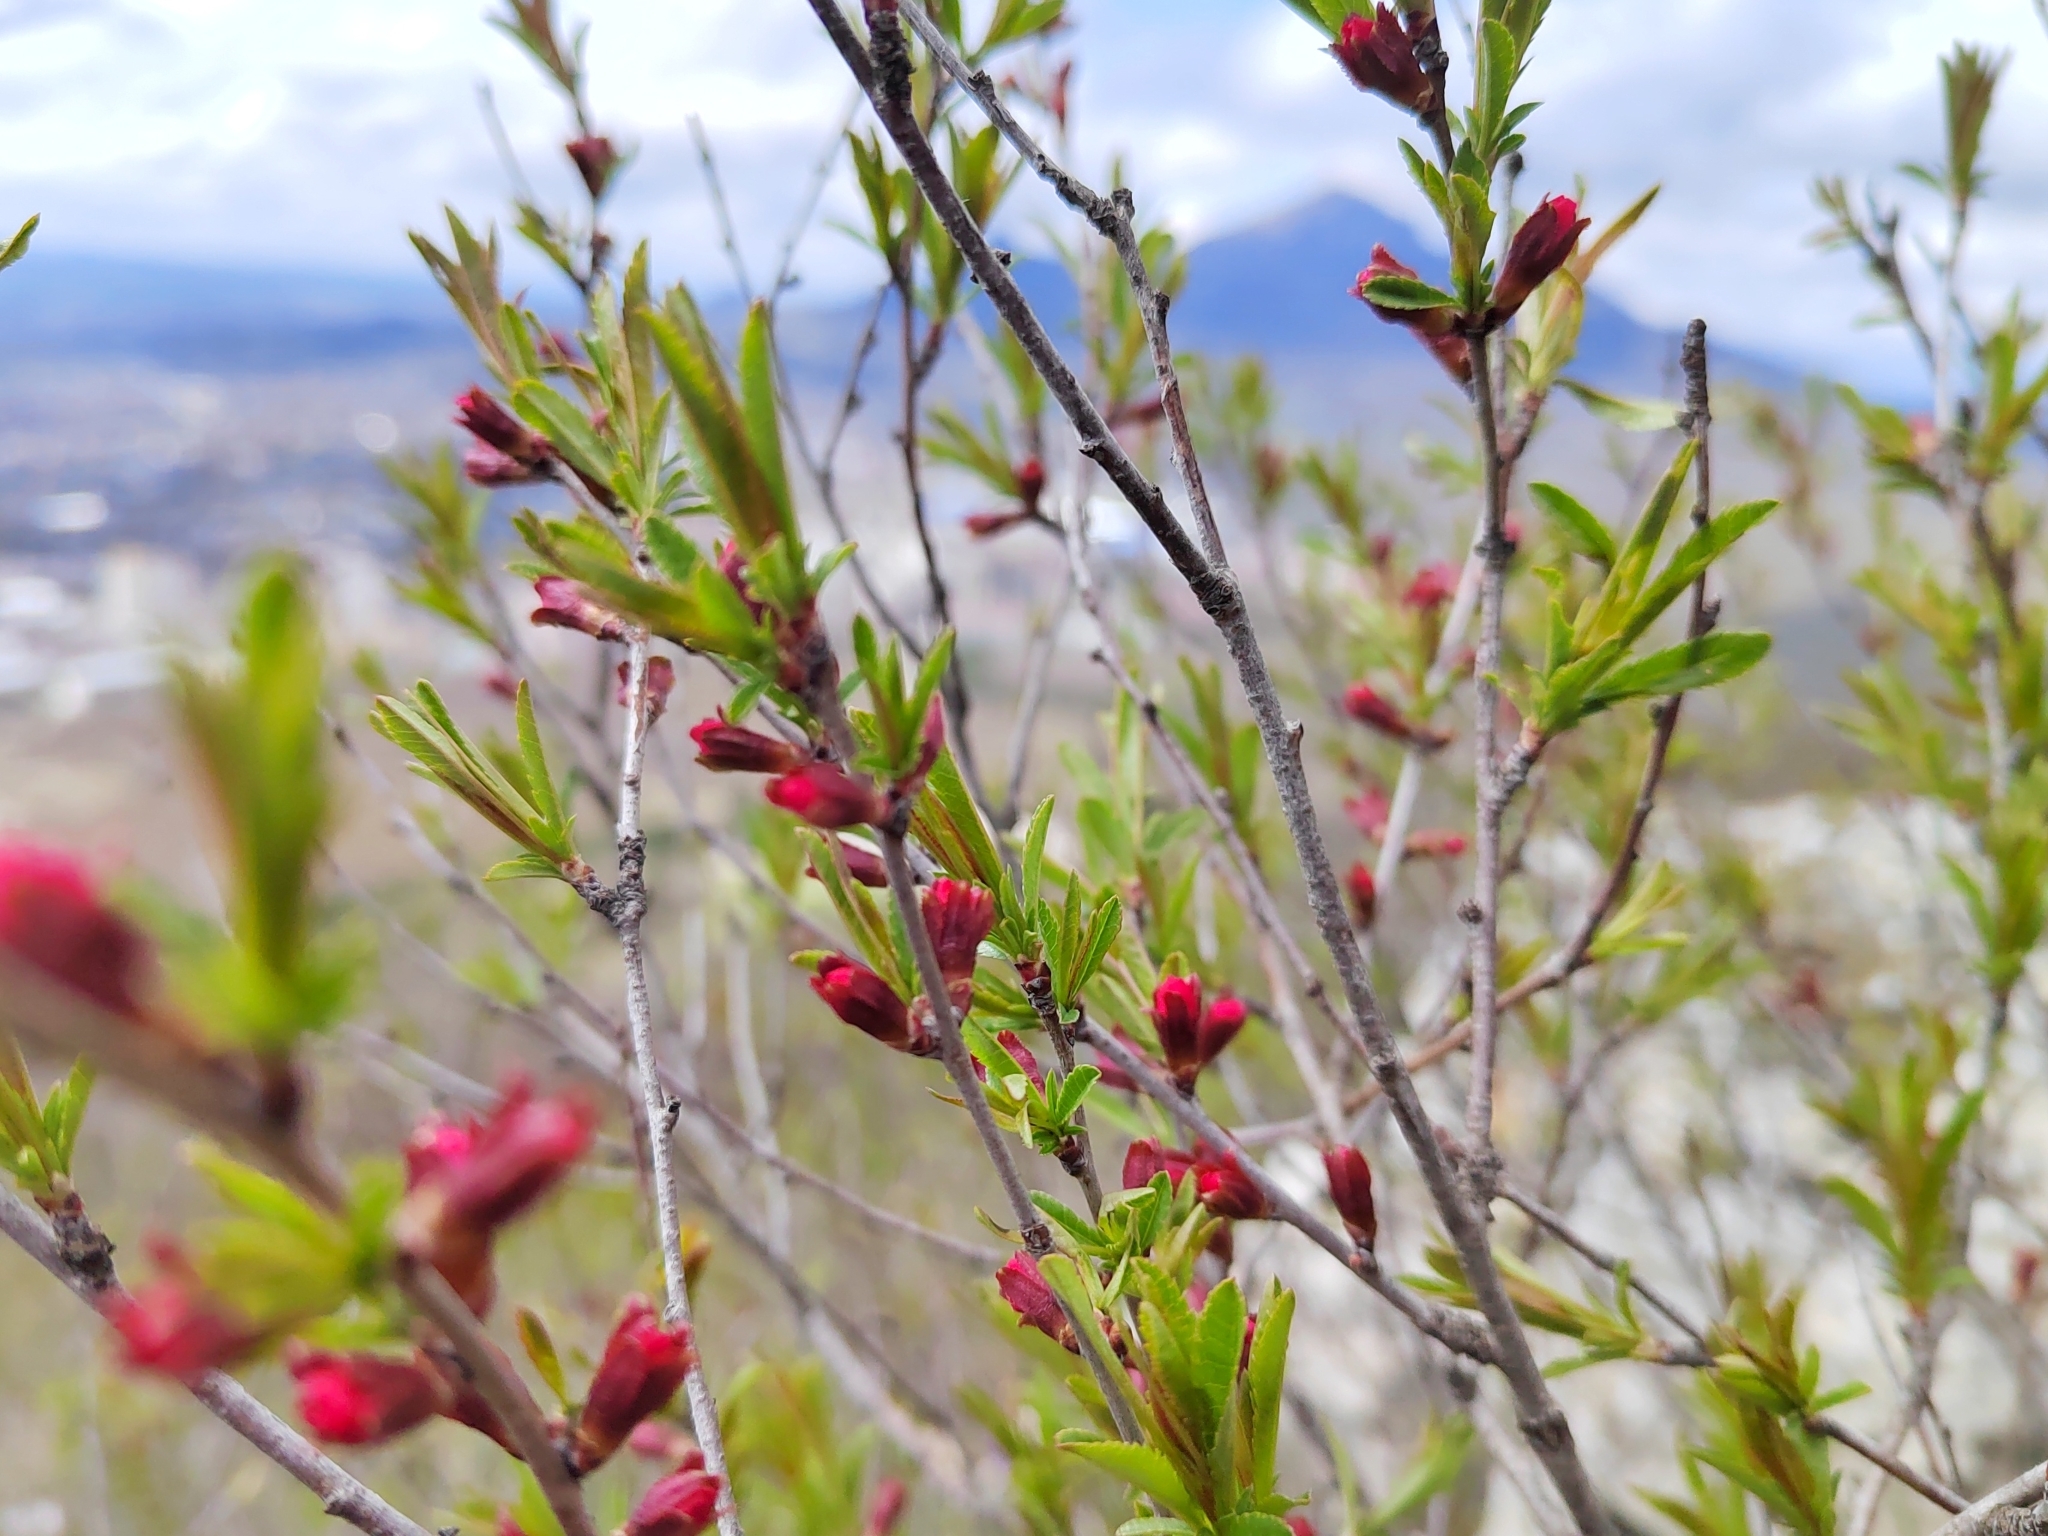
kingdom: Plantae
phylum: Tracheophyta
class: Magnoliopsida
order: Rosales
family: Rosaceae
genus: Prunus
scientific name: Prunus tenella
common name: Dwarf russian almond
